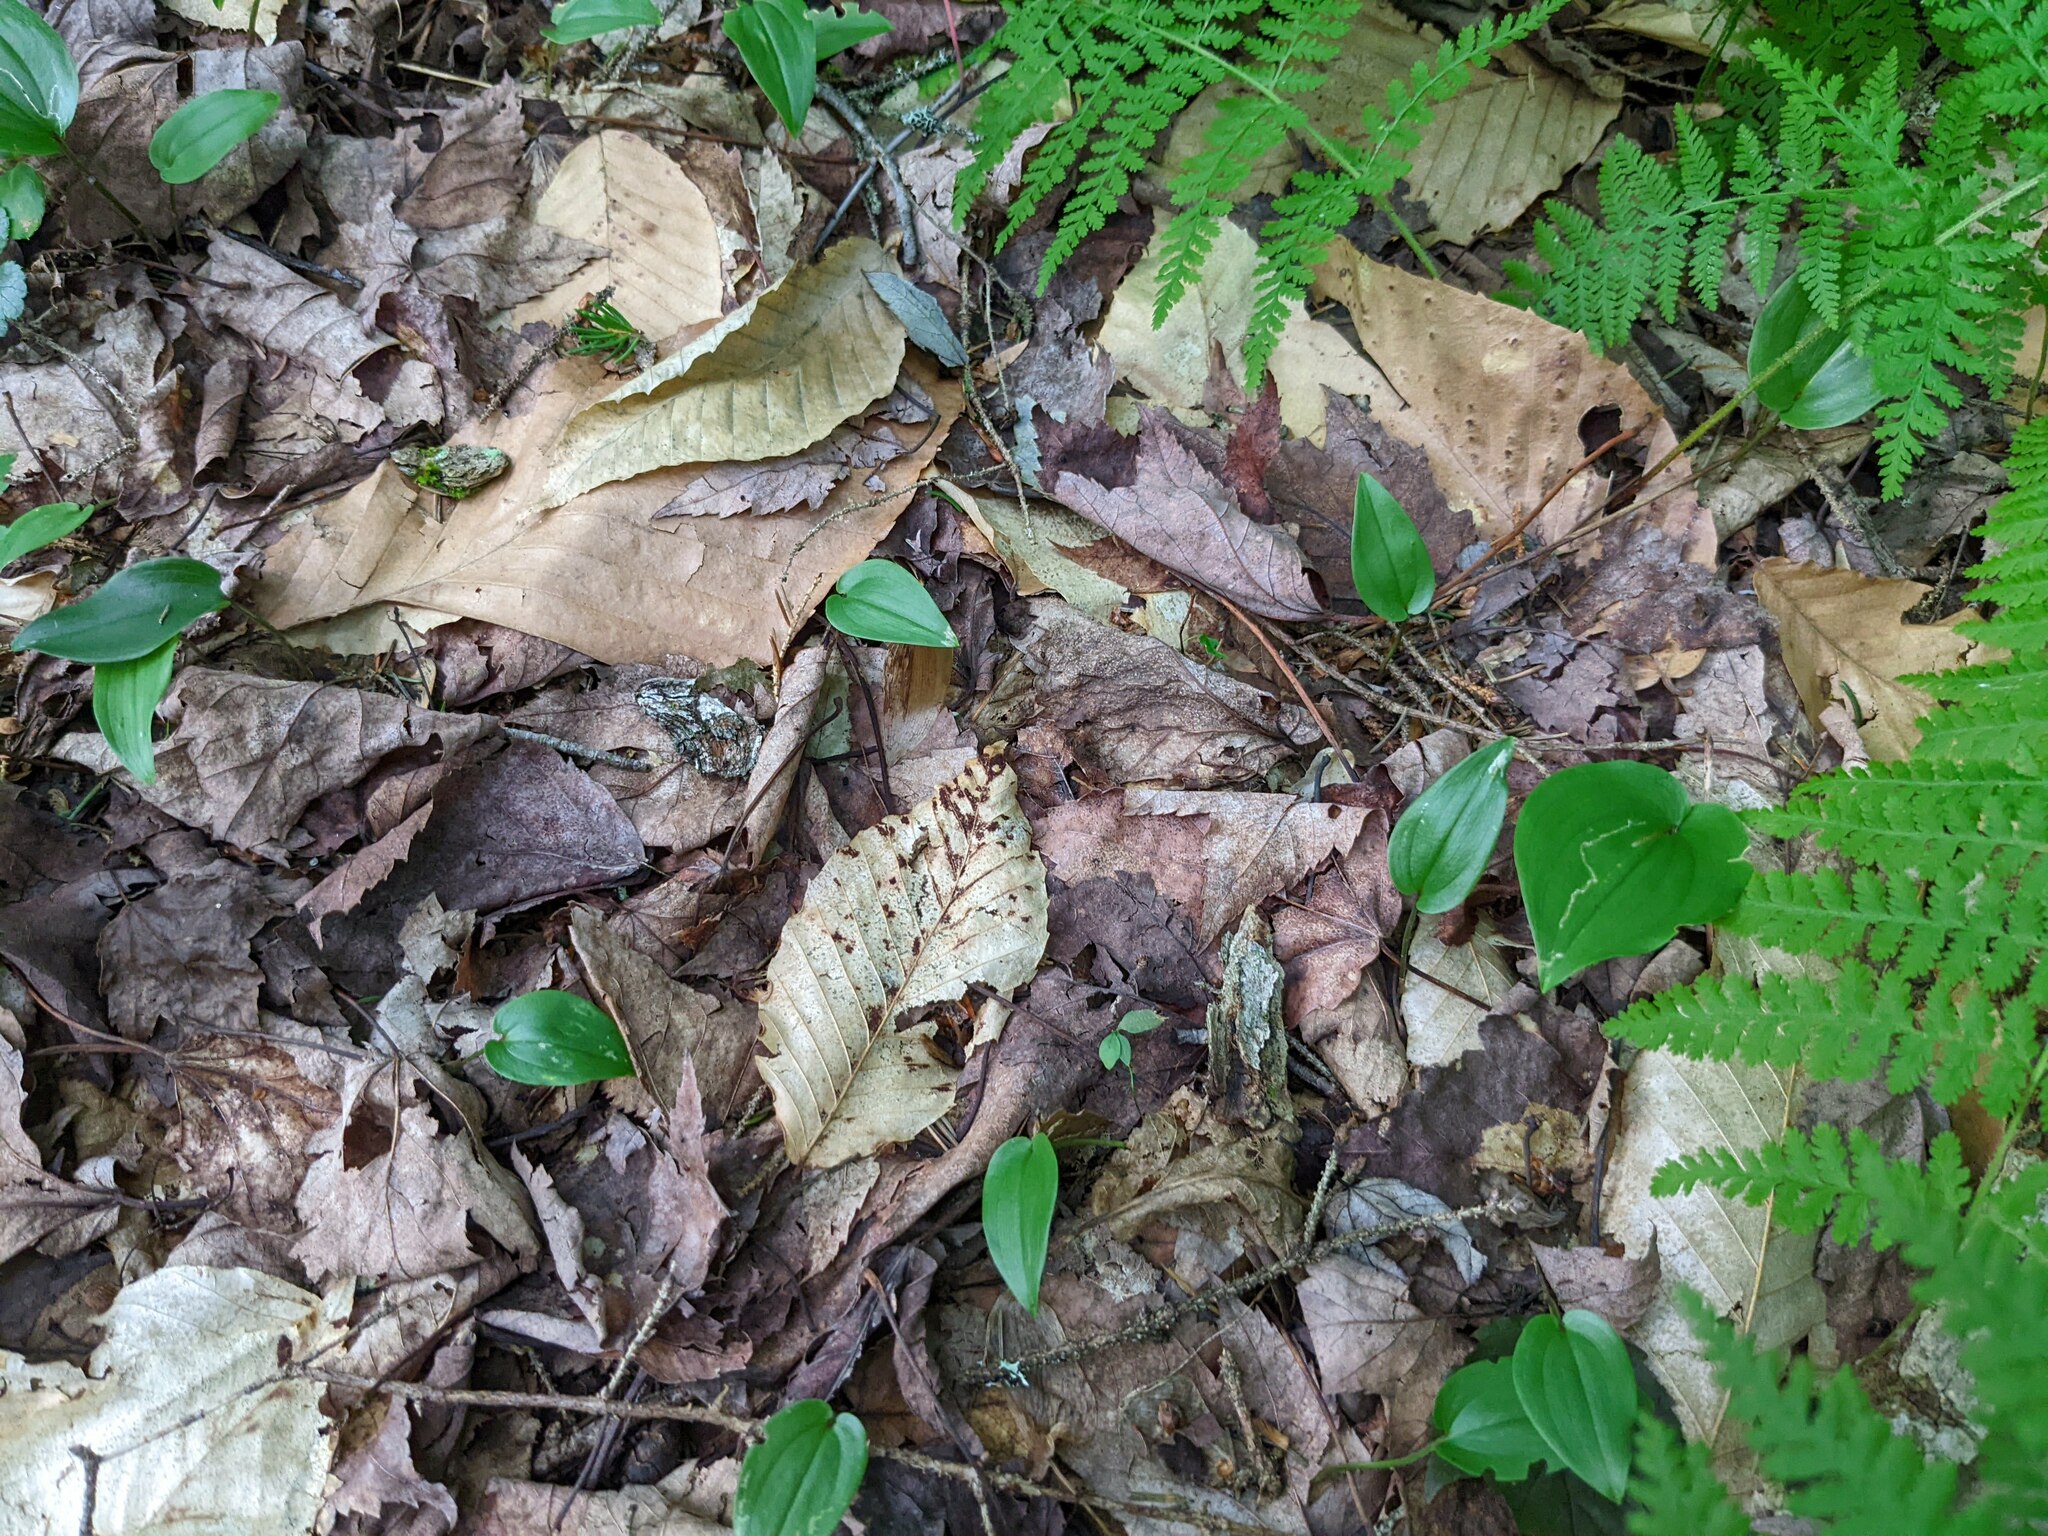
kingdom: Plantae
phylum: Tracheophyta
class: Liliopsida
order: Asparagales
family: Asparagaceae
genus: Maianthemum
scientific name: Maianthemum canadense
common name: False lily-of-the-valley
